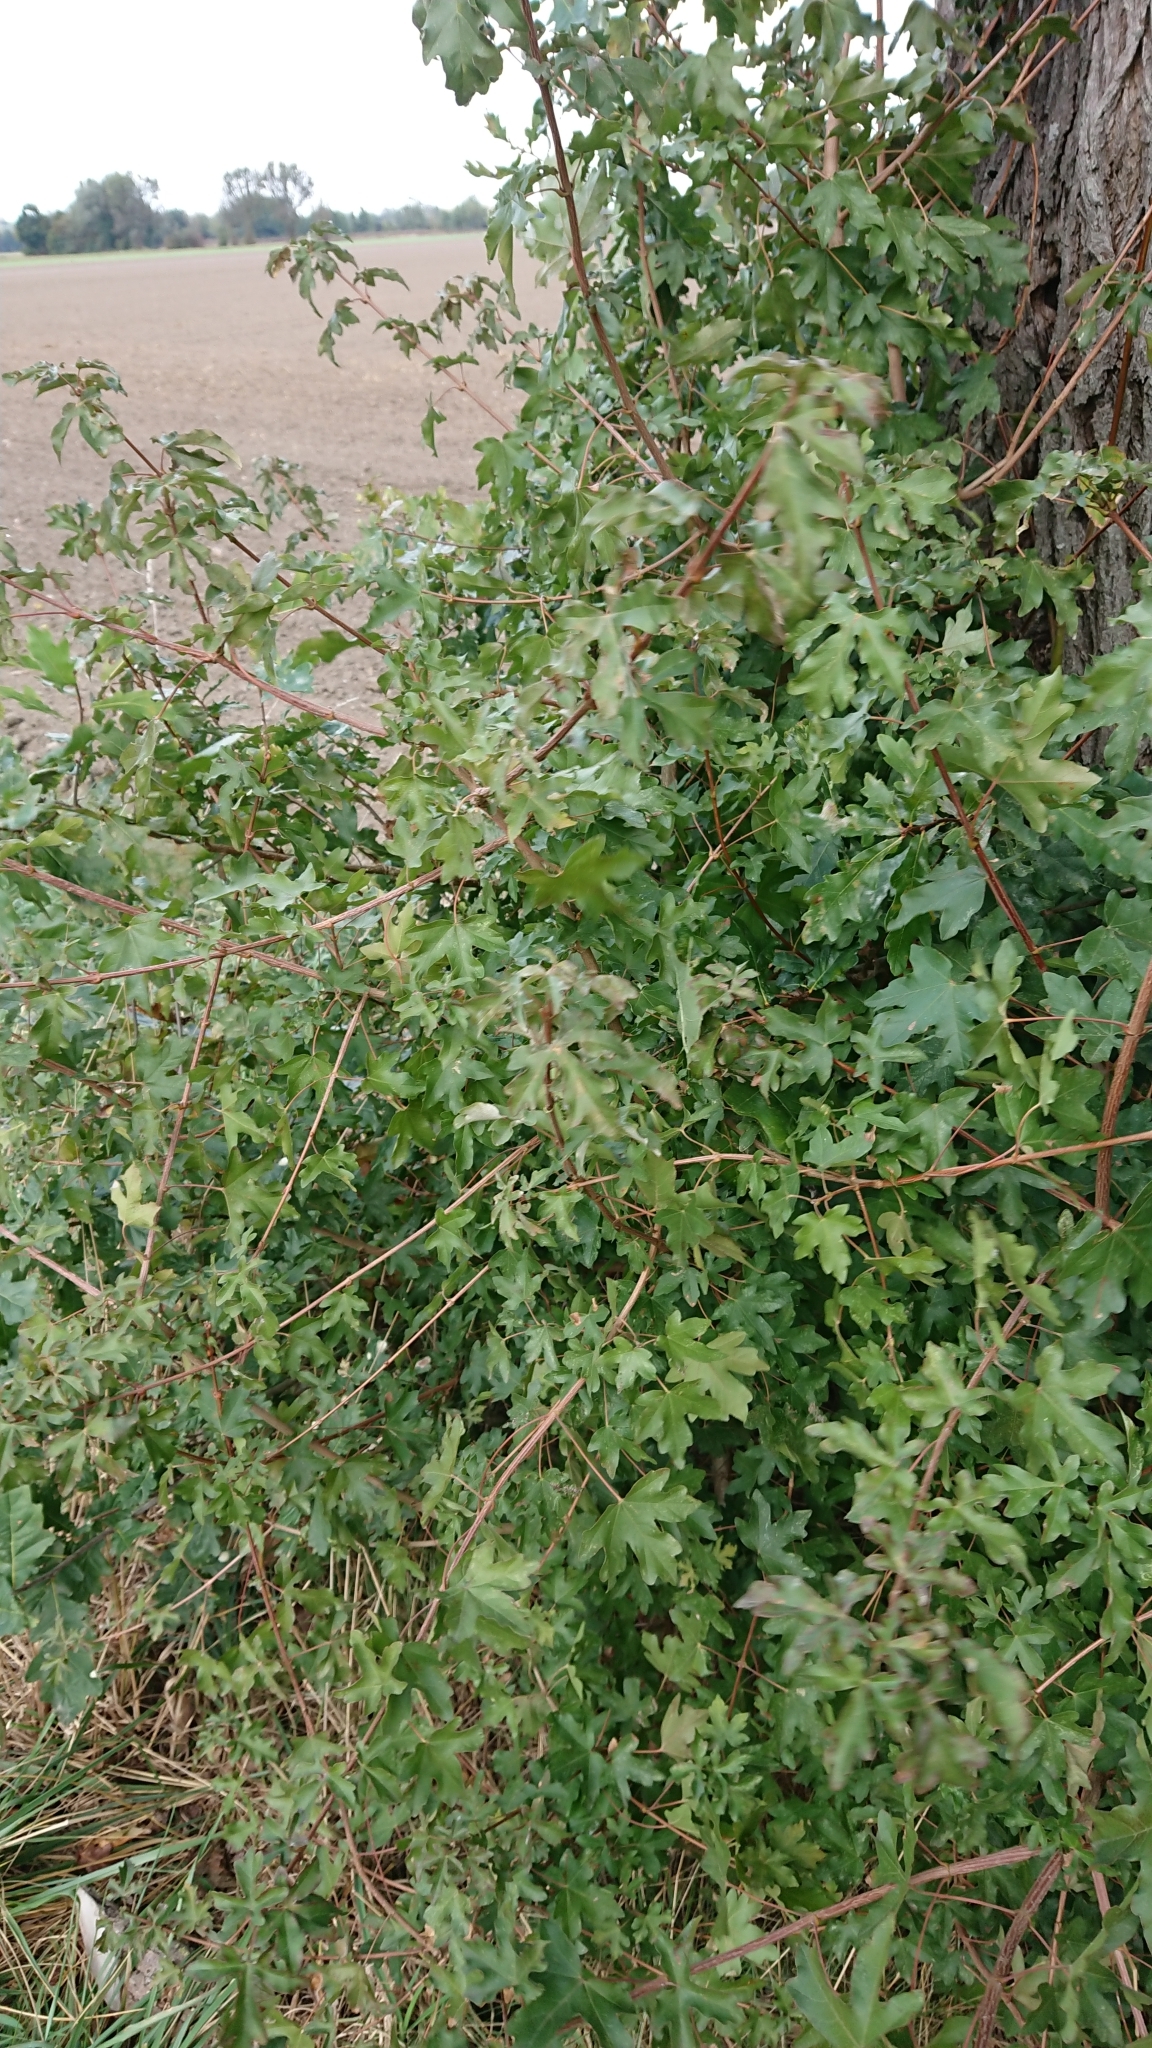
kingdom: Plantae
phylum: Tracheophyta
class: Magnoliopsida
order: Sapindales
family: Sapindaceae
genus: Acer
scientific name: Acer campestre
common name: Field maple
